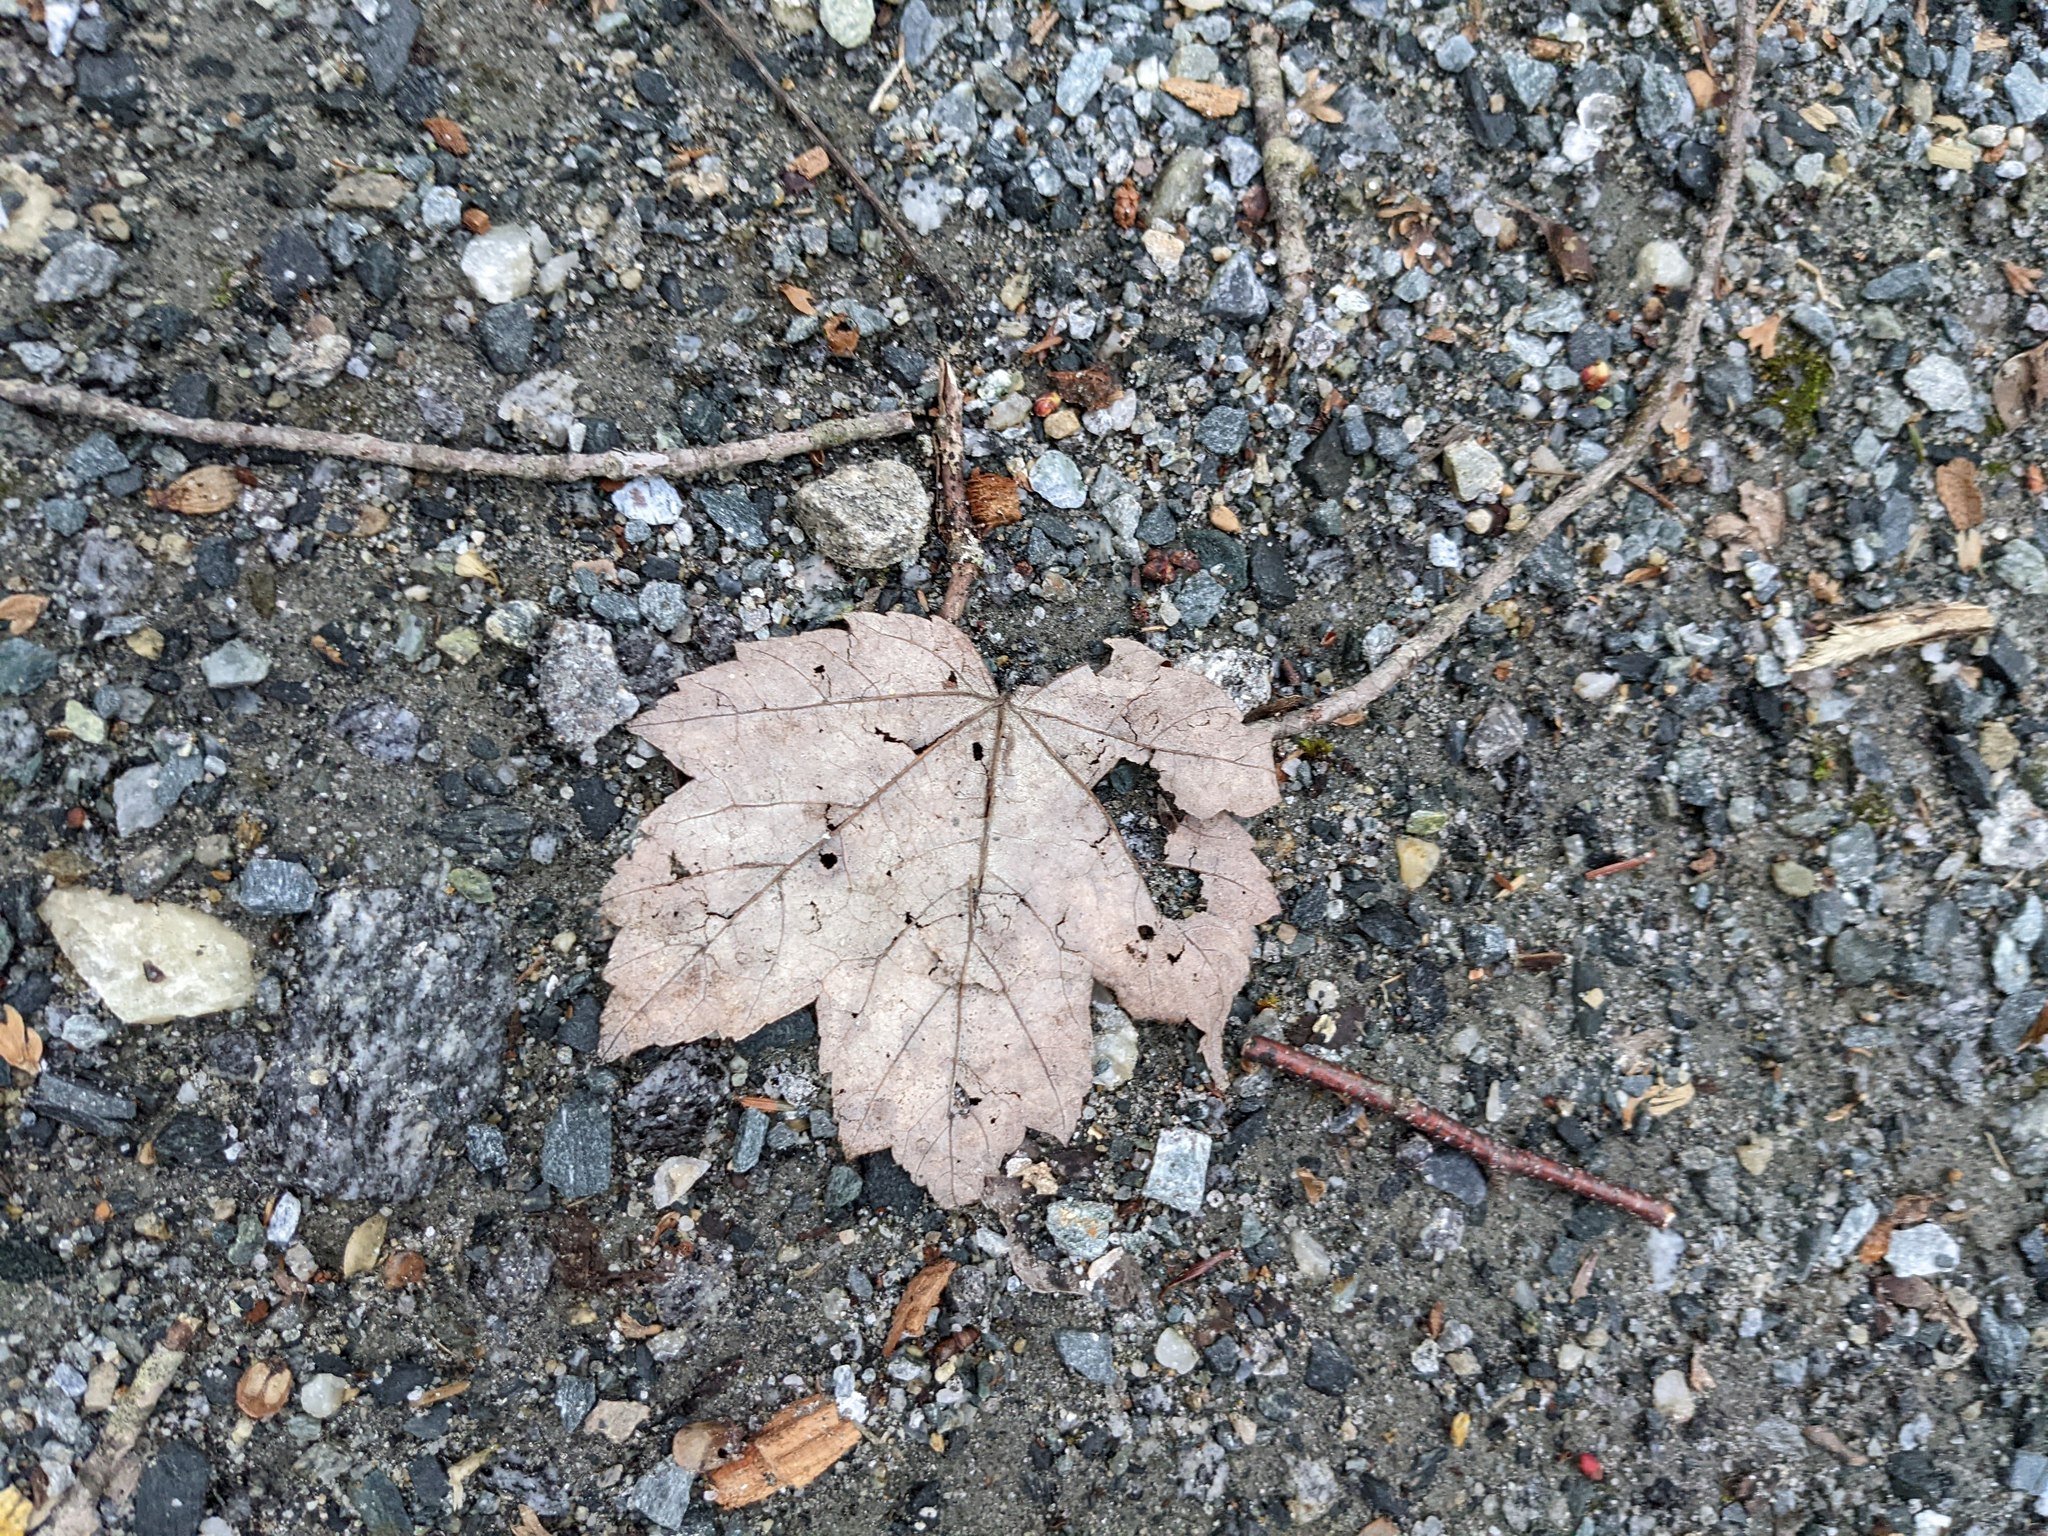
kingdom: Plantae
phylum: Tracheophyta
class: Magnoliopsida
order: Sapindales
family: Sapindaceae
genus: Acer
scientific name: Acer rubrum
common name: Red maple
